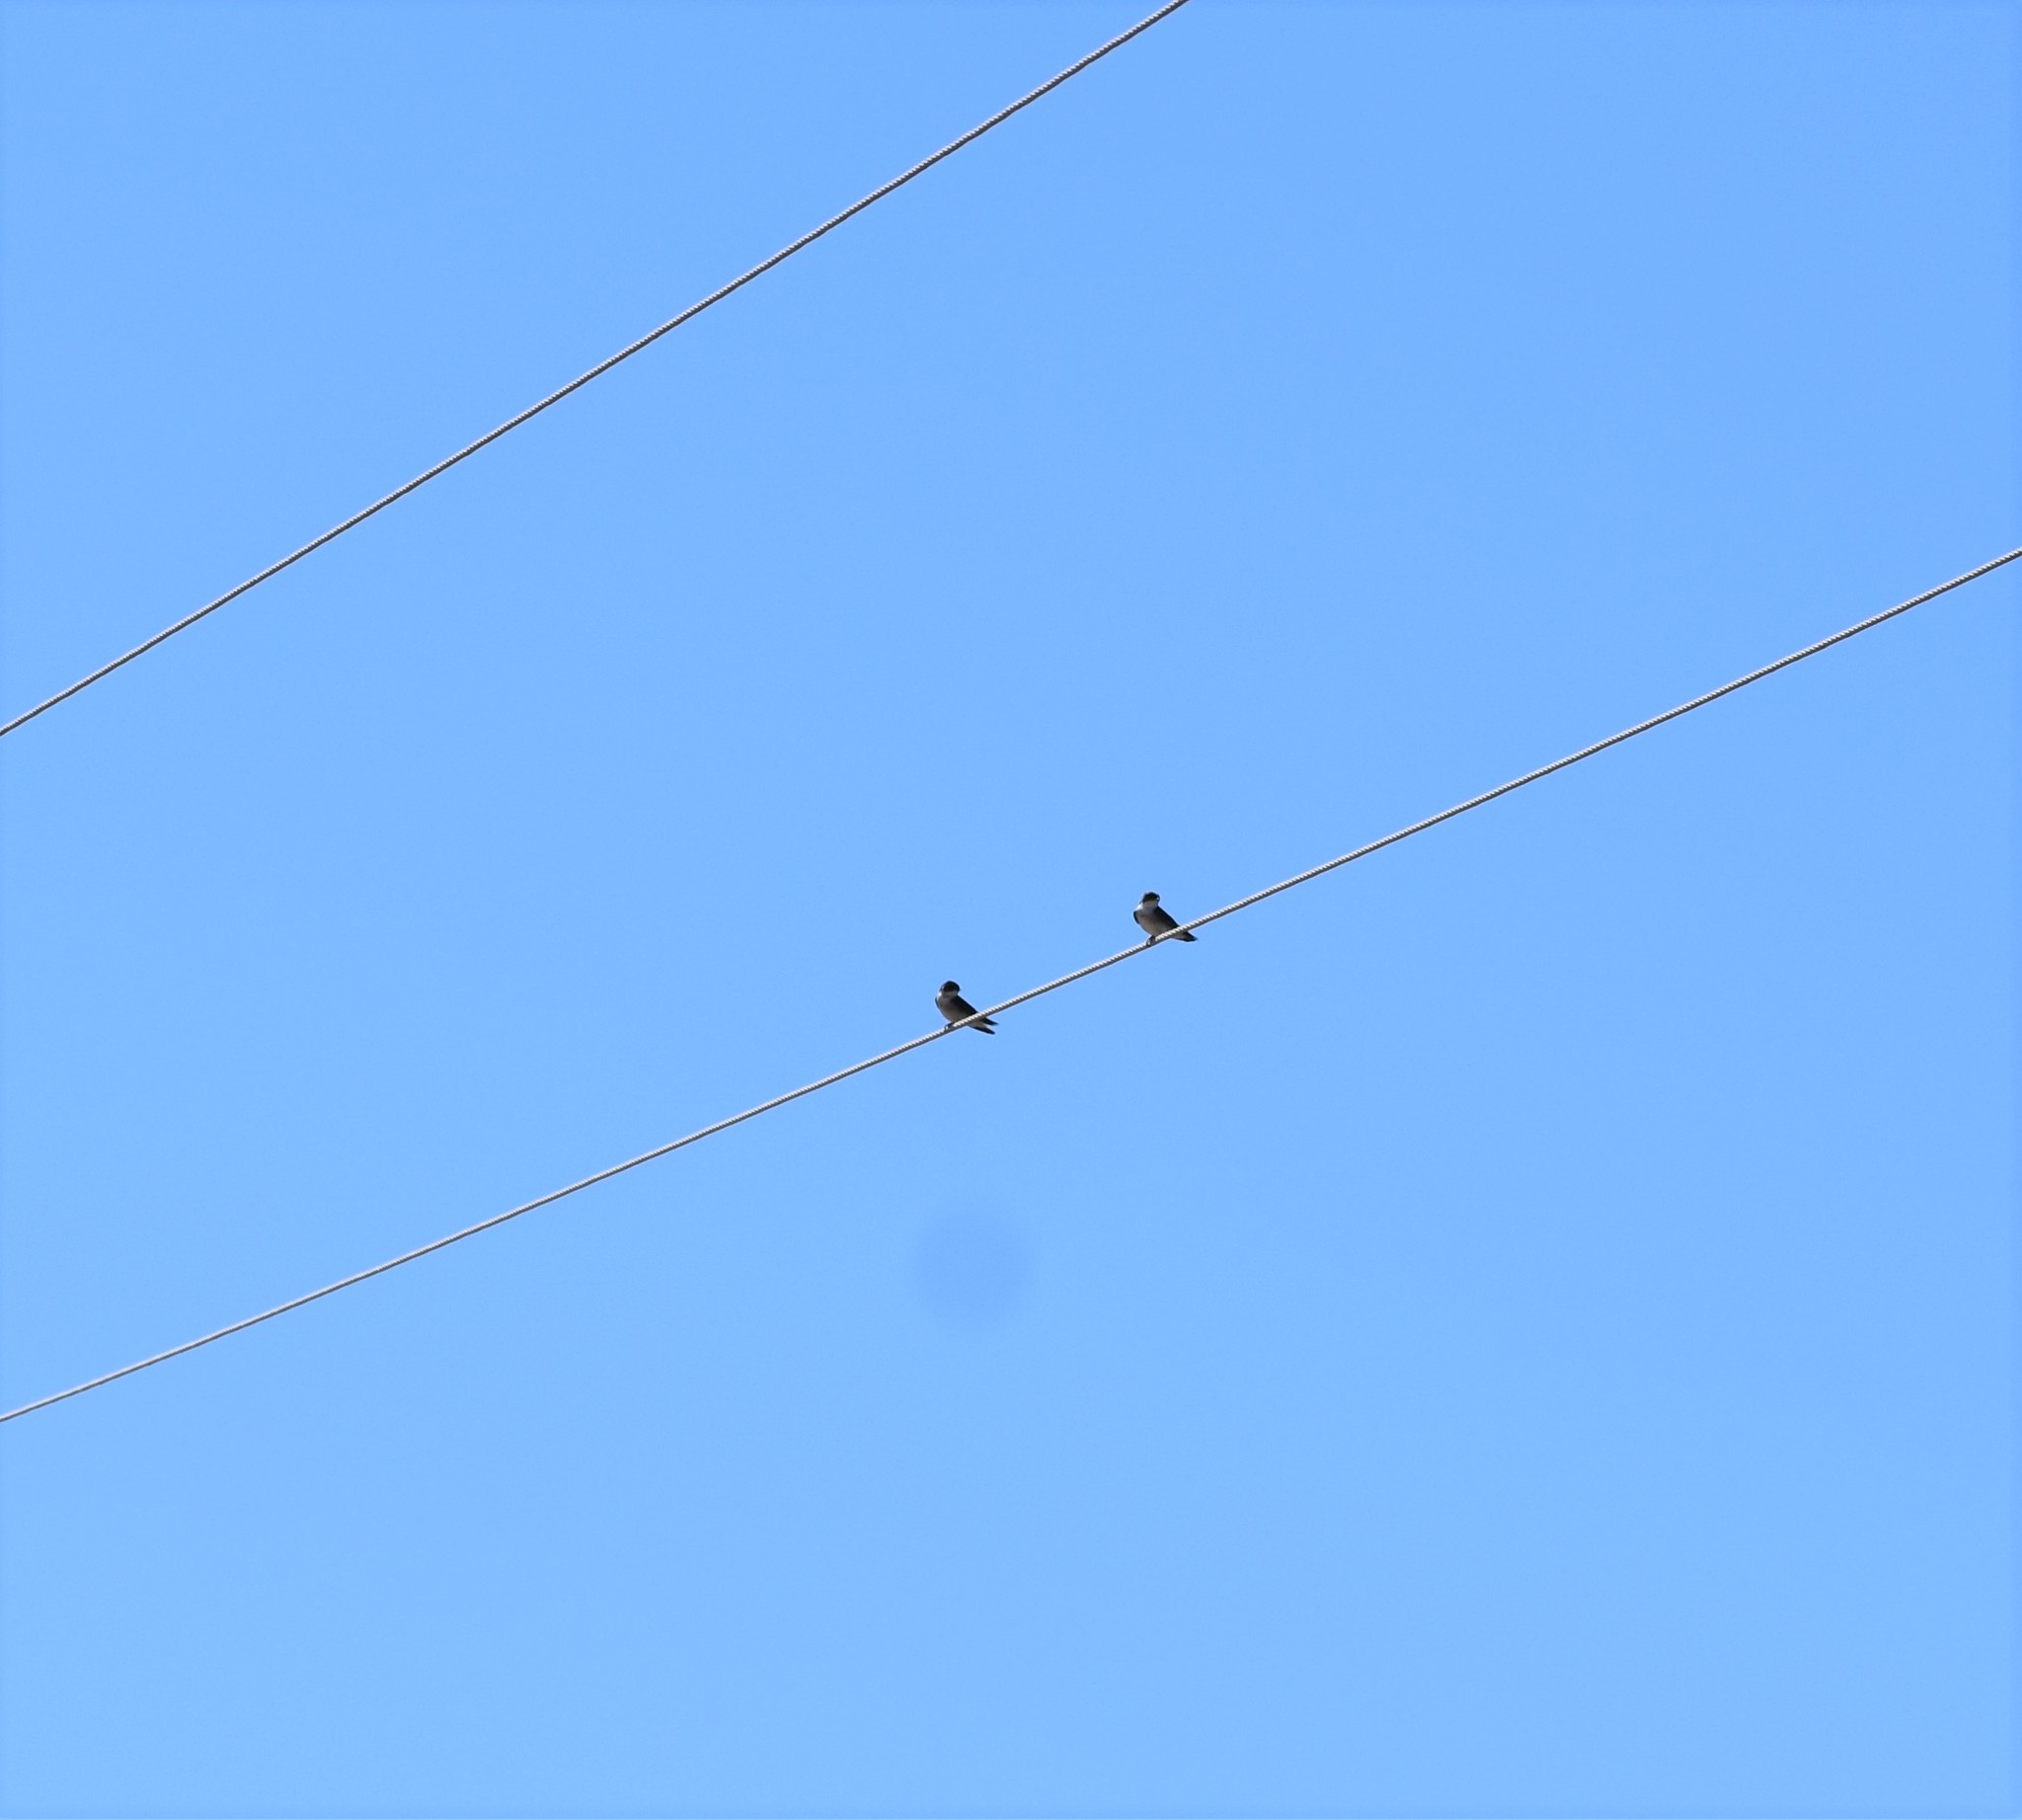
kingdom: Animalia
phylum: Chordata
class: Aves
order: Passeriformes
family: Hirundinidae
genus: Hirundo
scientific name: Hirundo dimidiata
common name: Pearl-breasted swallow
